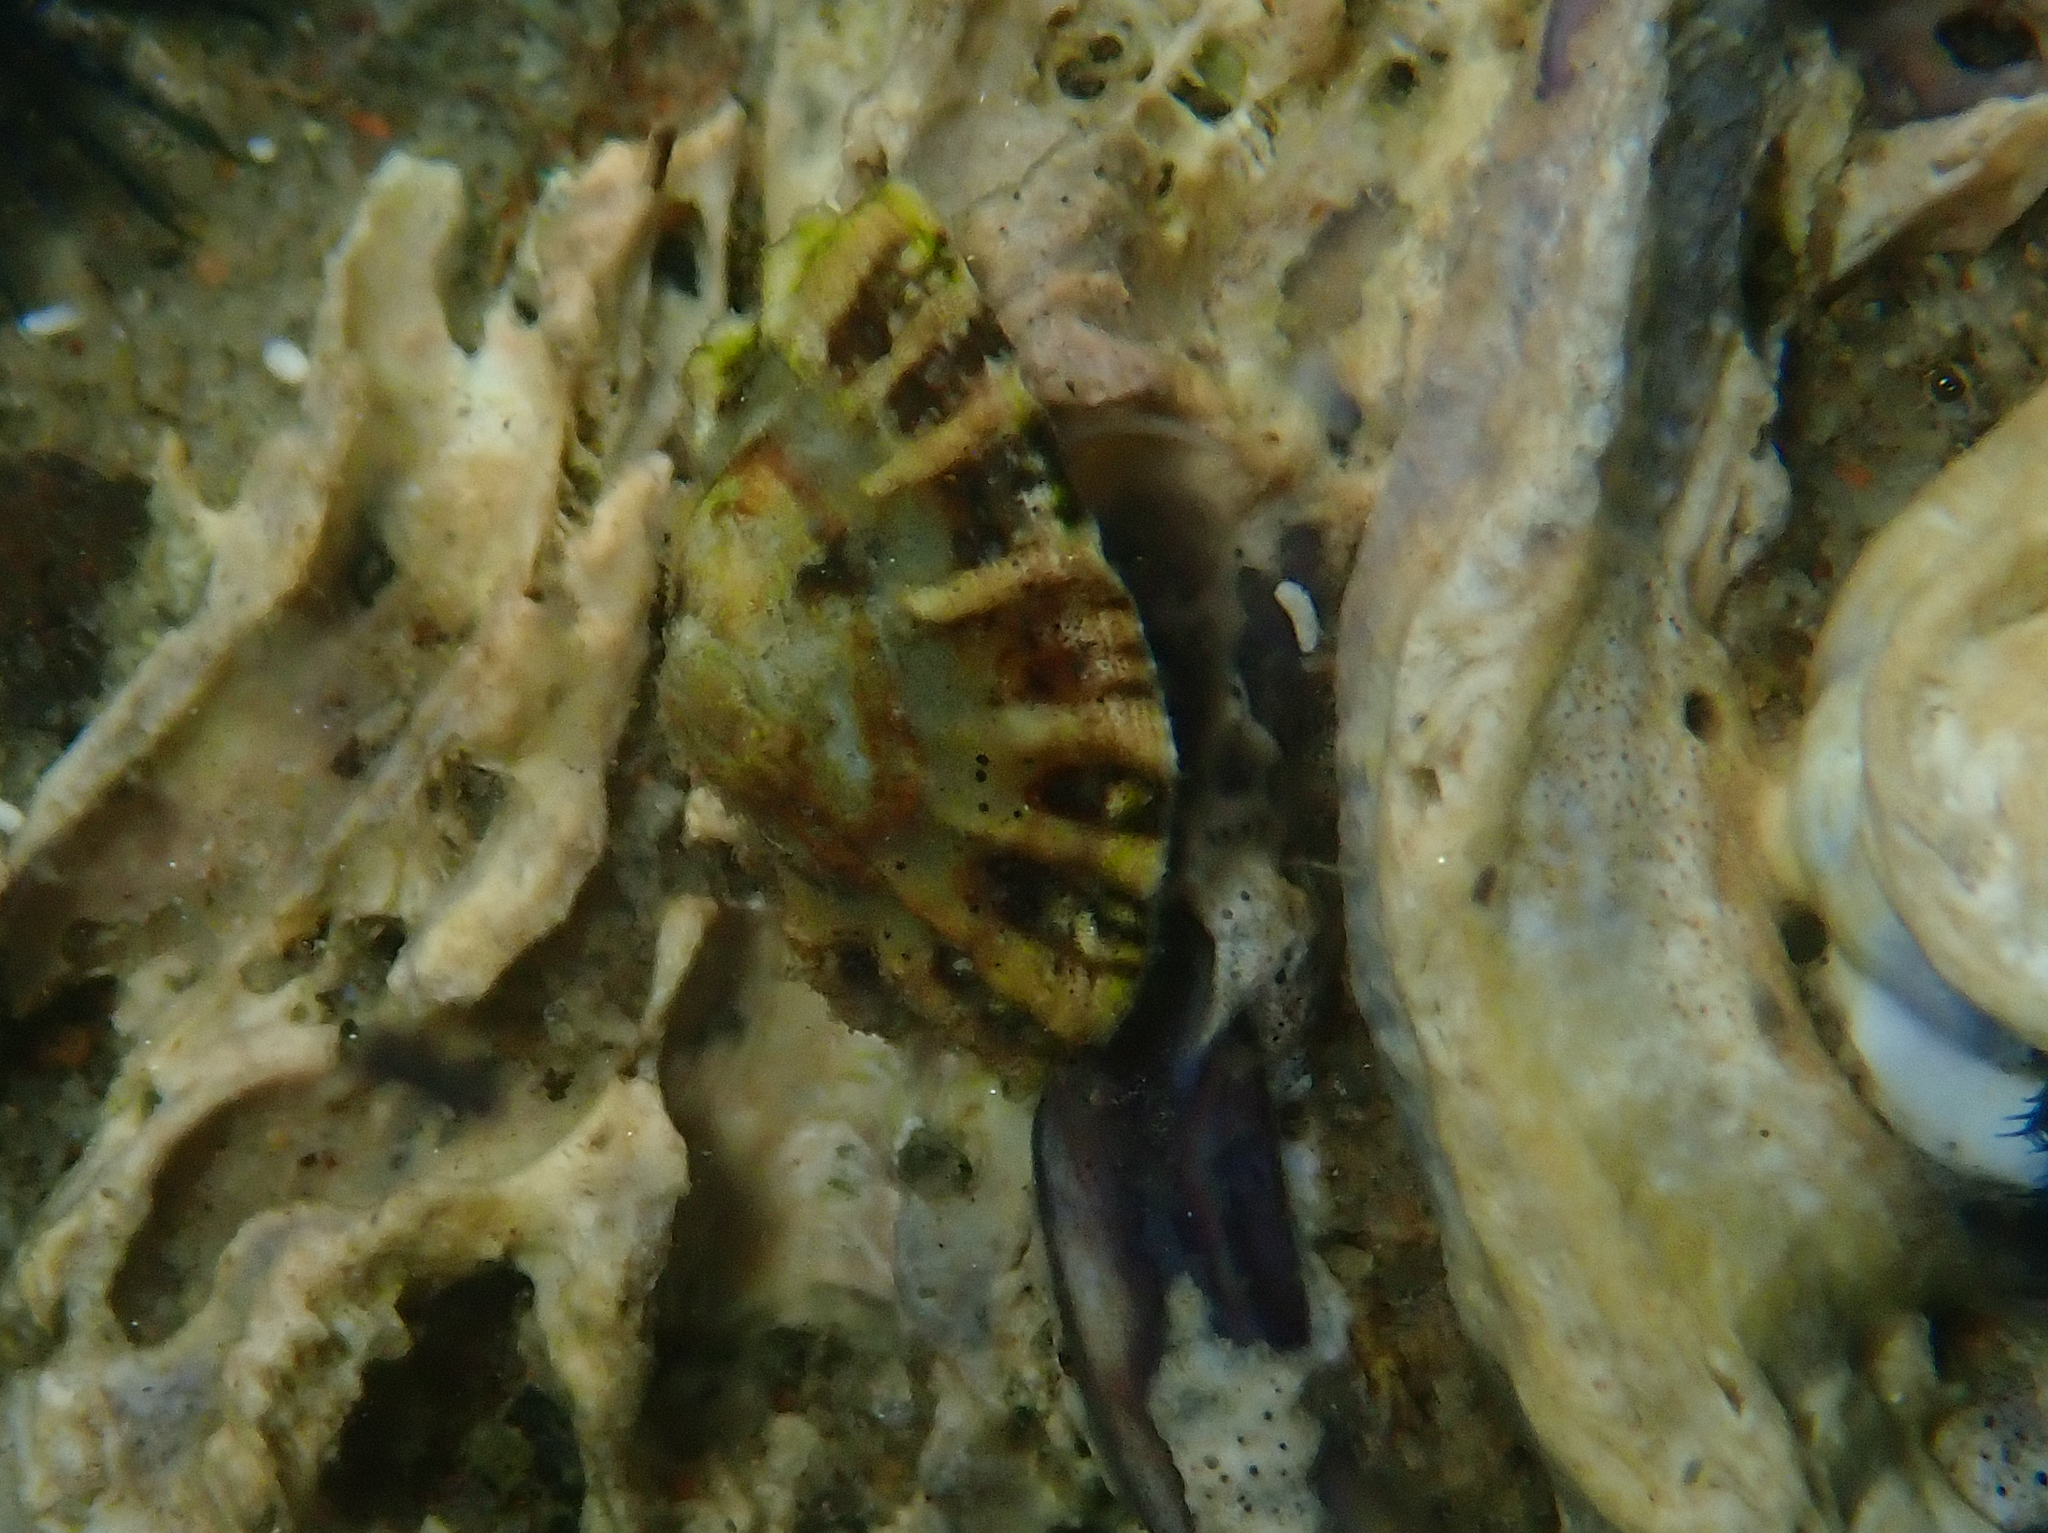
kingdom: Animalia
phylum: Mollusca
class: Gastropoda
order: Siphonariida
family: Siphonariidae
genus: Siphonaria
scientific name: Siphonaria australis
